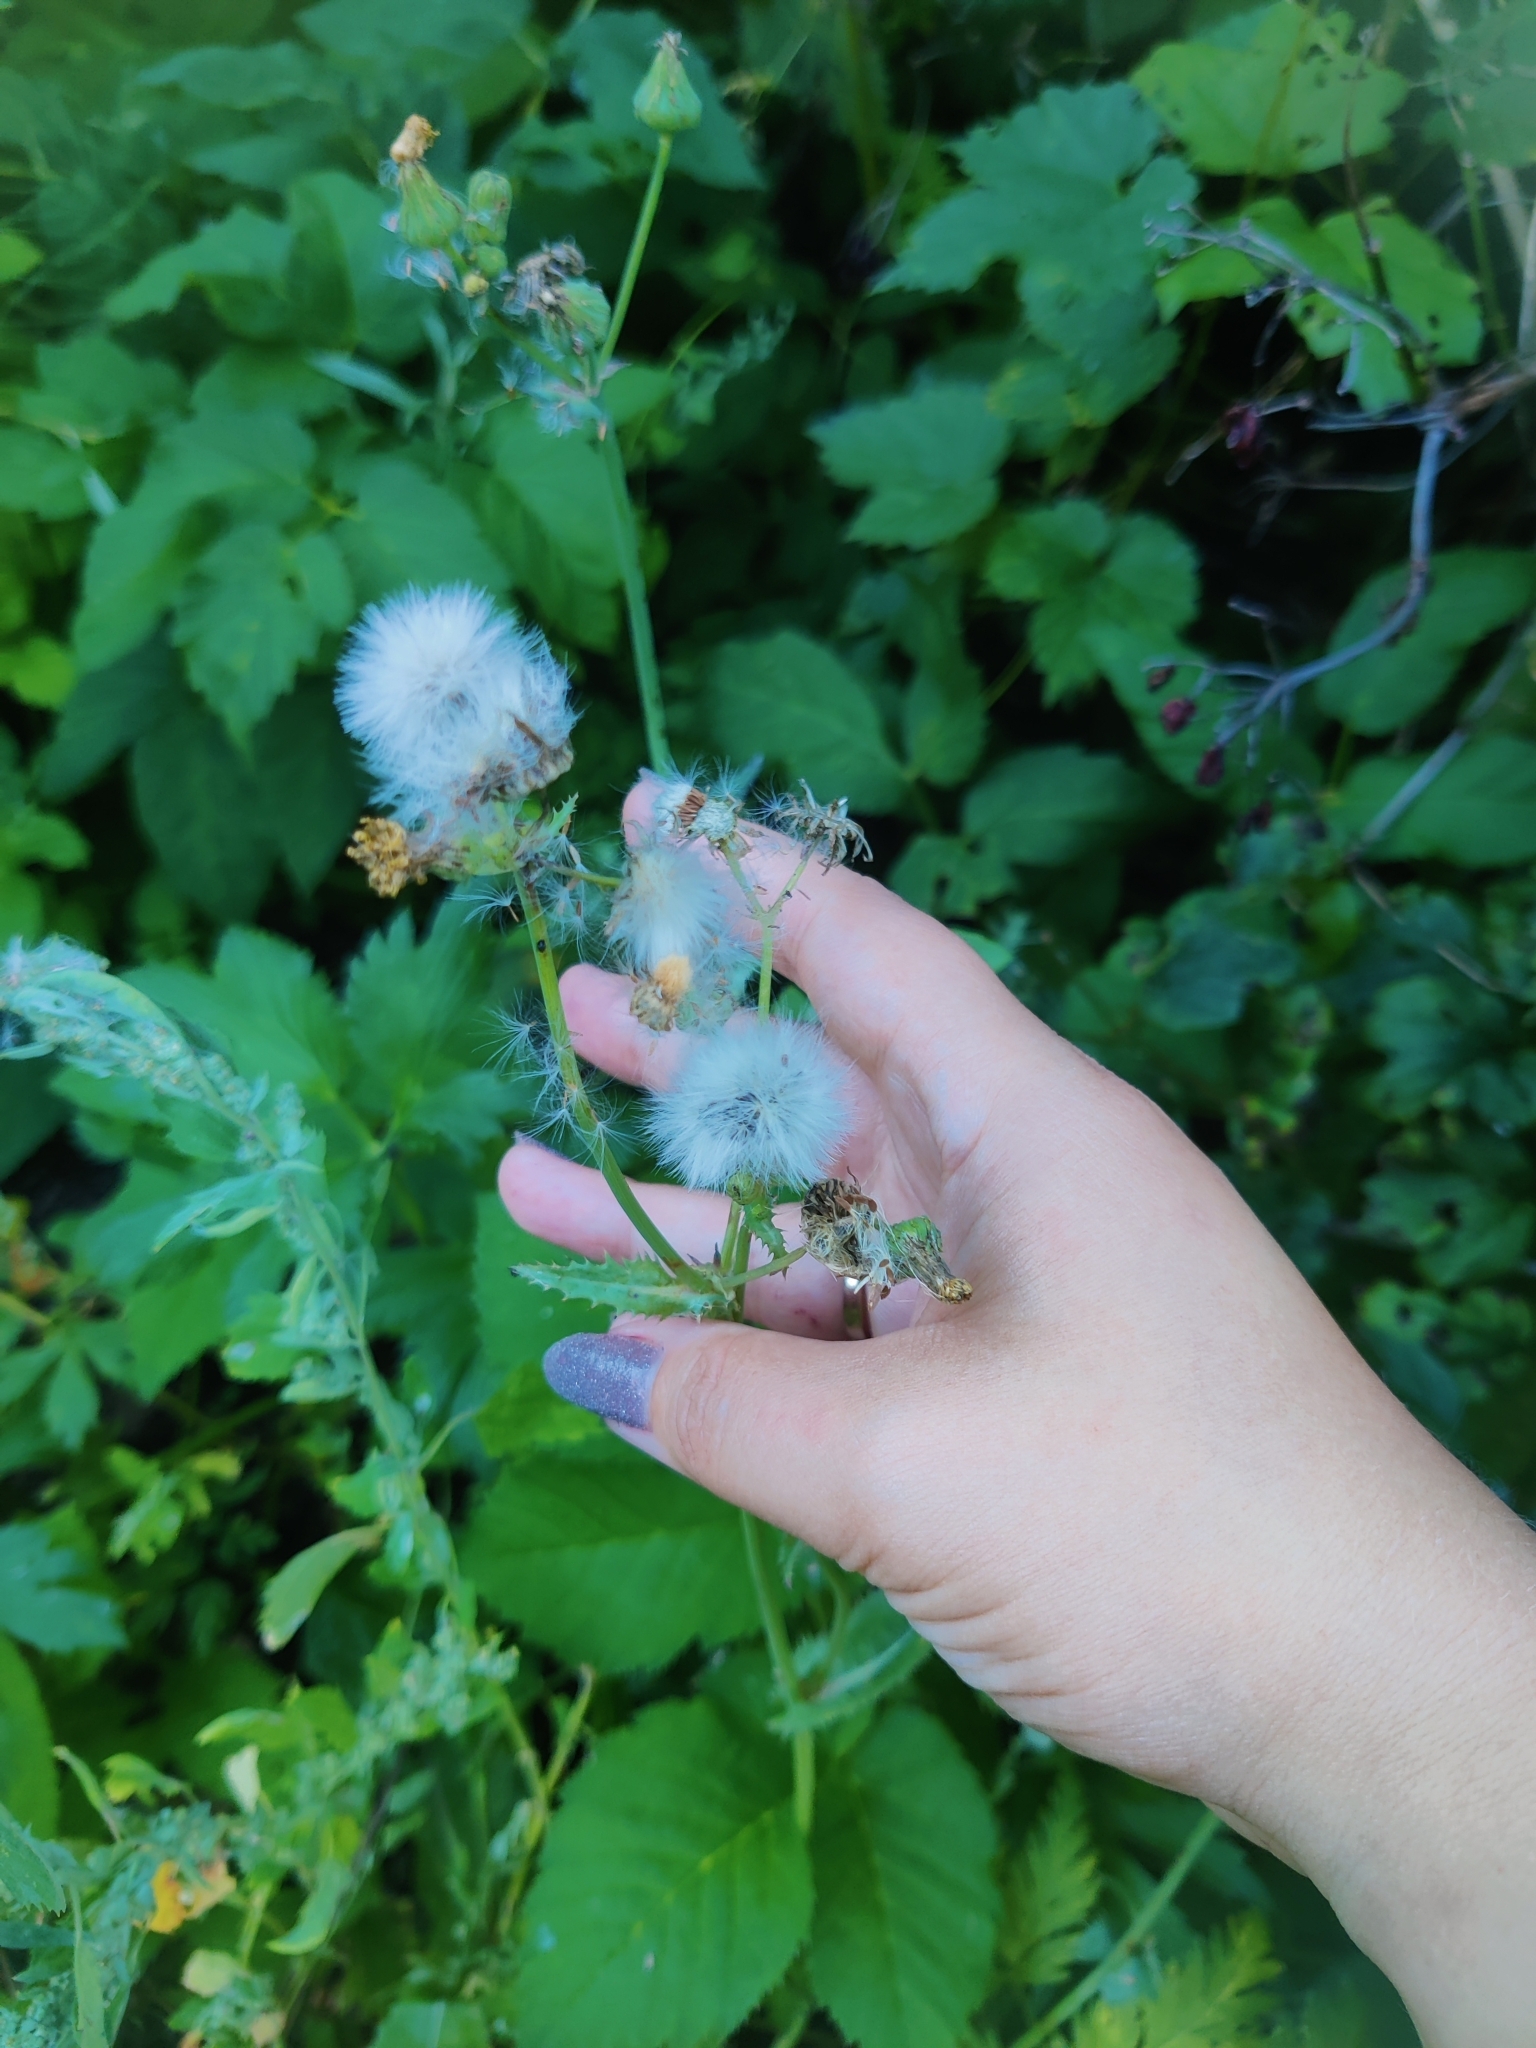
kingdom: Plantae
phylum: Tracheophyta
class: Magnoliopsida
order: Asterales
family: Asteraceae
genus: Sonchus
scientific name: Sonchus oleraceus
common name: Common sowthistle
